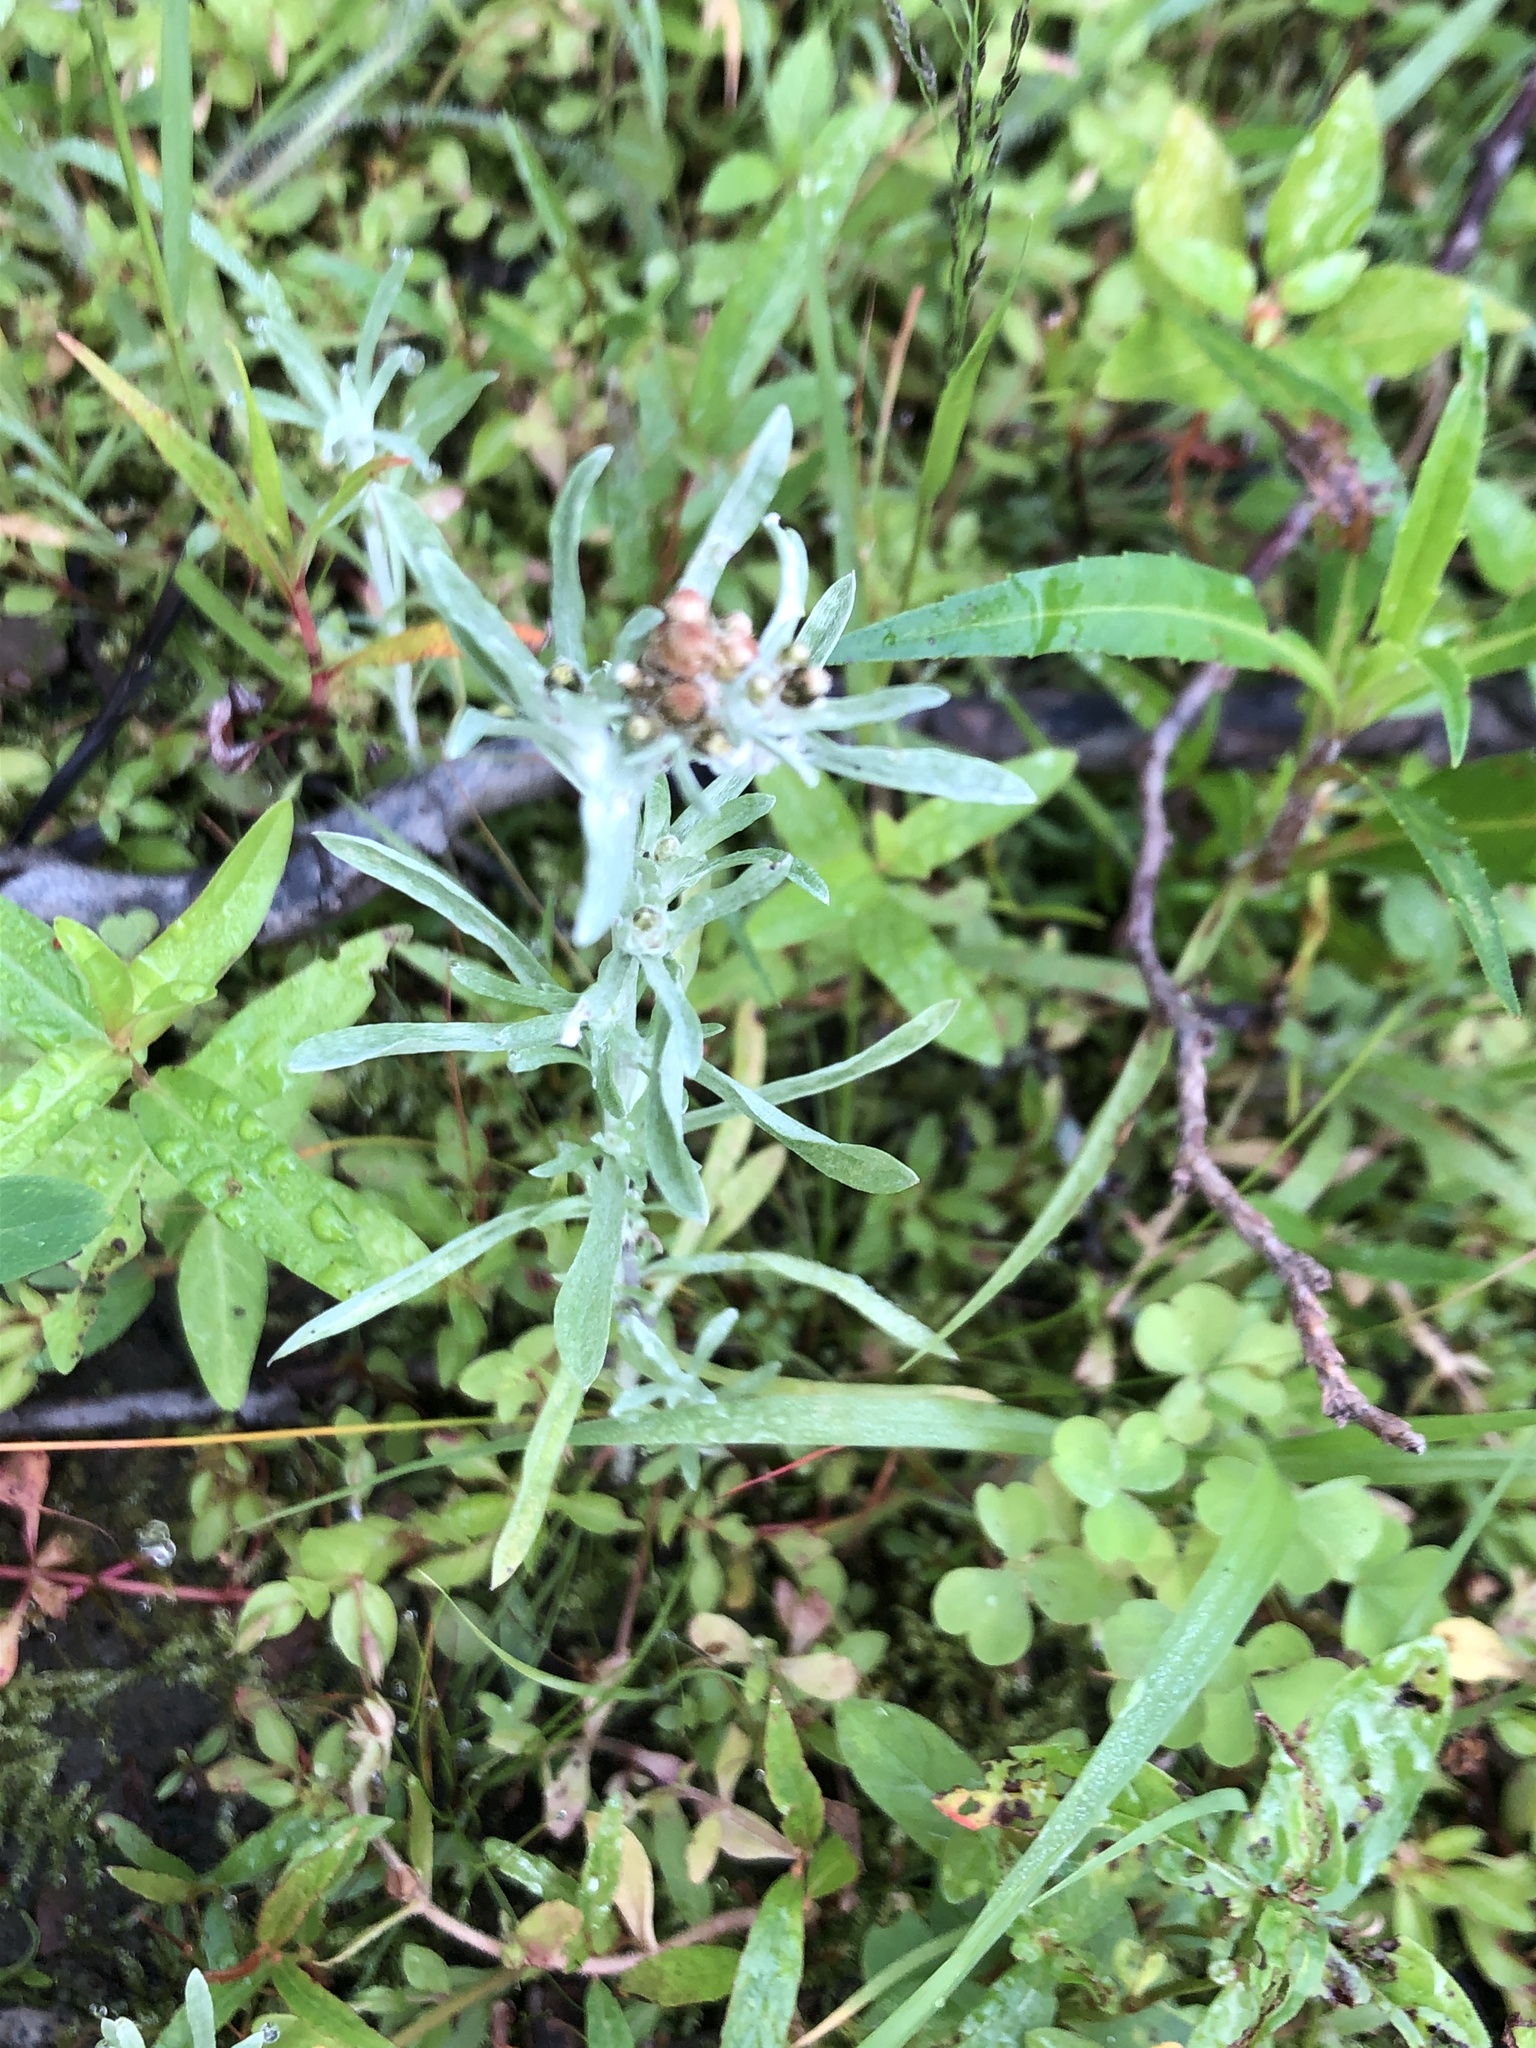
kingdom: Plantae
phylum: Tracheophyta
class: Magnoliopsida
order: Asterales
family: Asteraceae
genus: Gnaphalium
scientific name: Gnaphalium uliginosum
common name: Marsh cudweed
